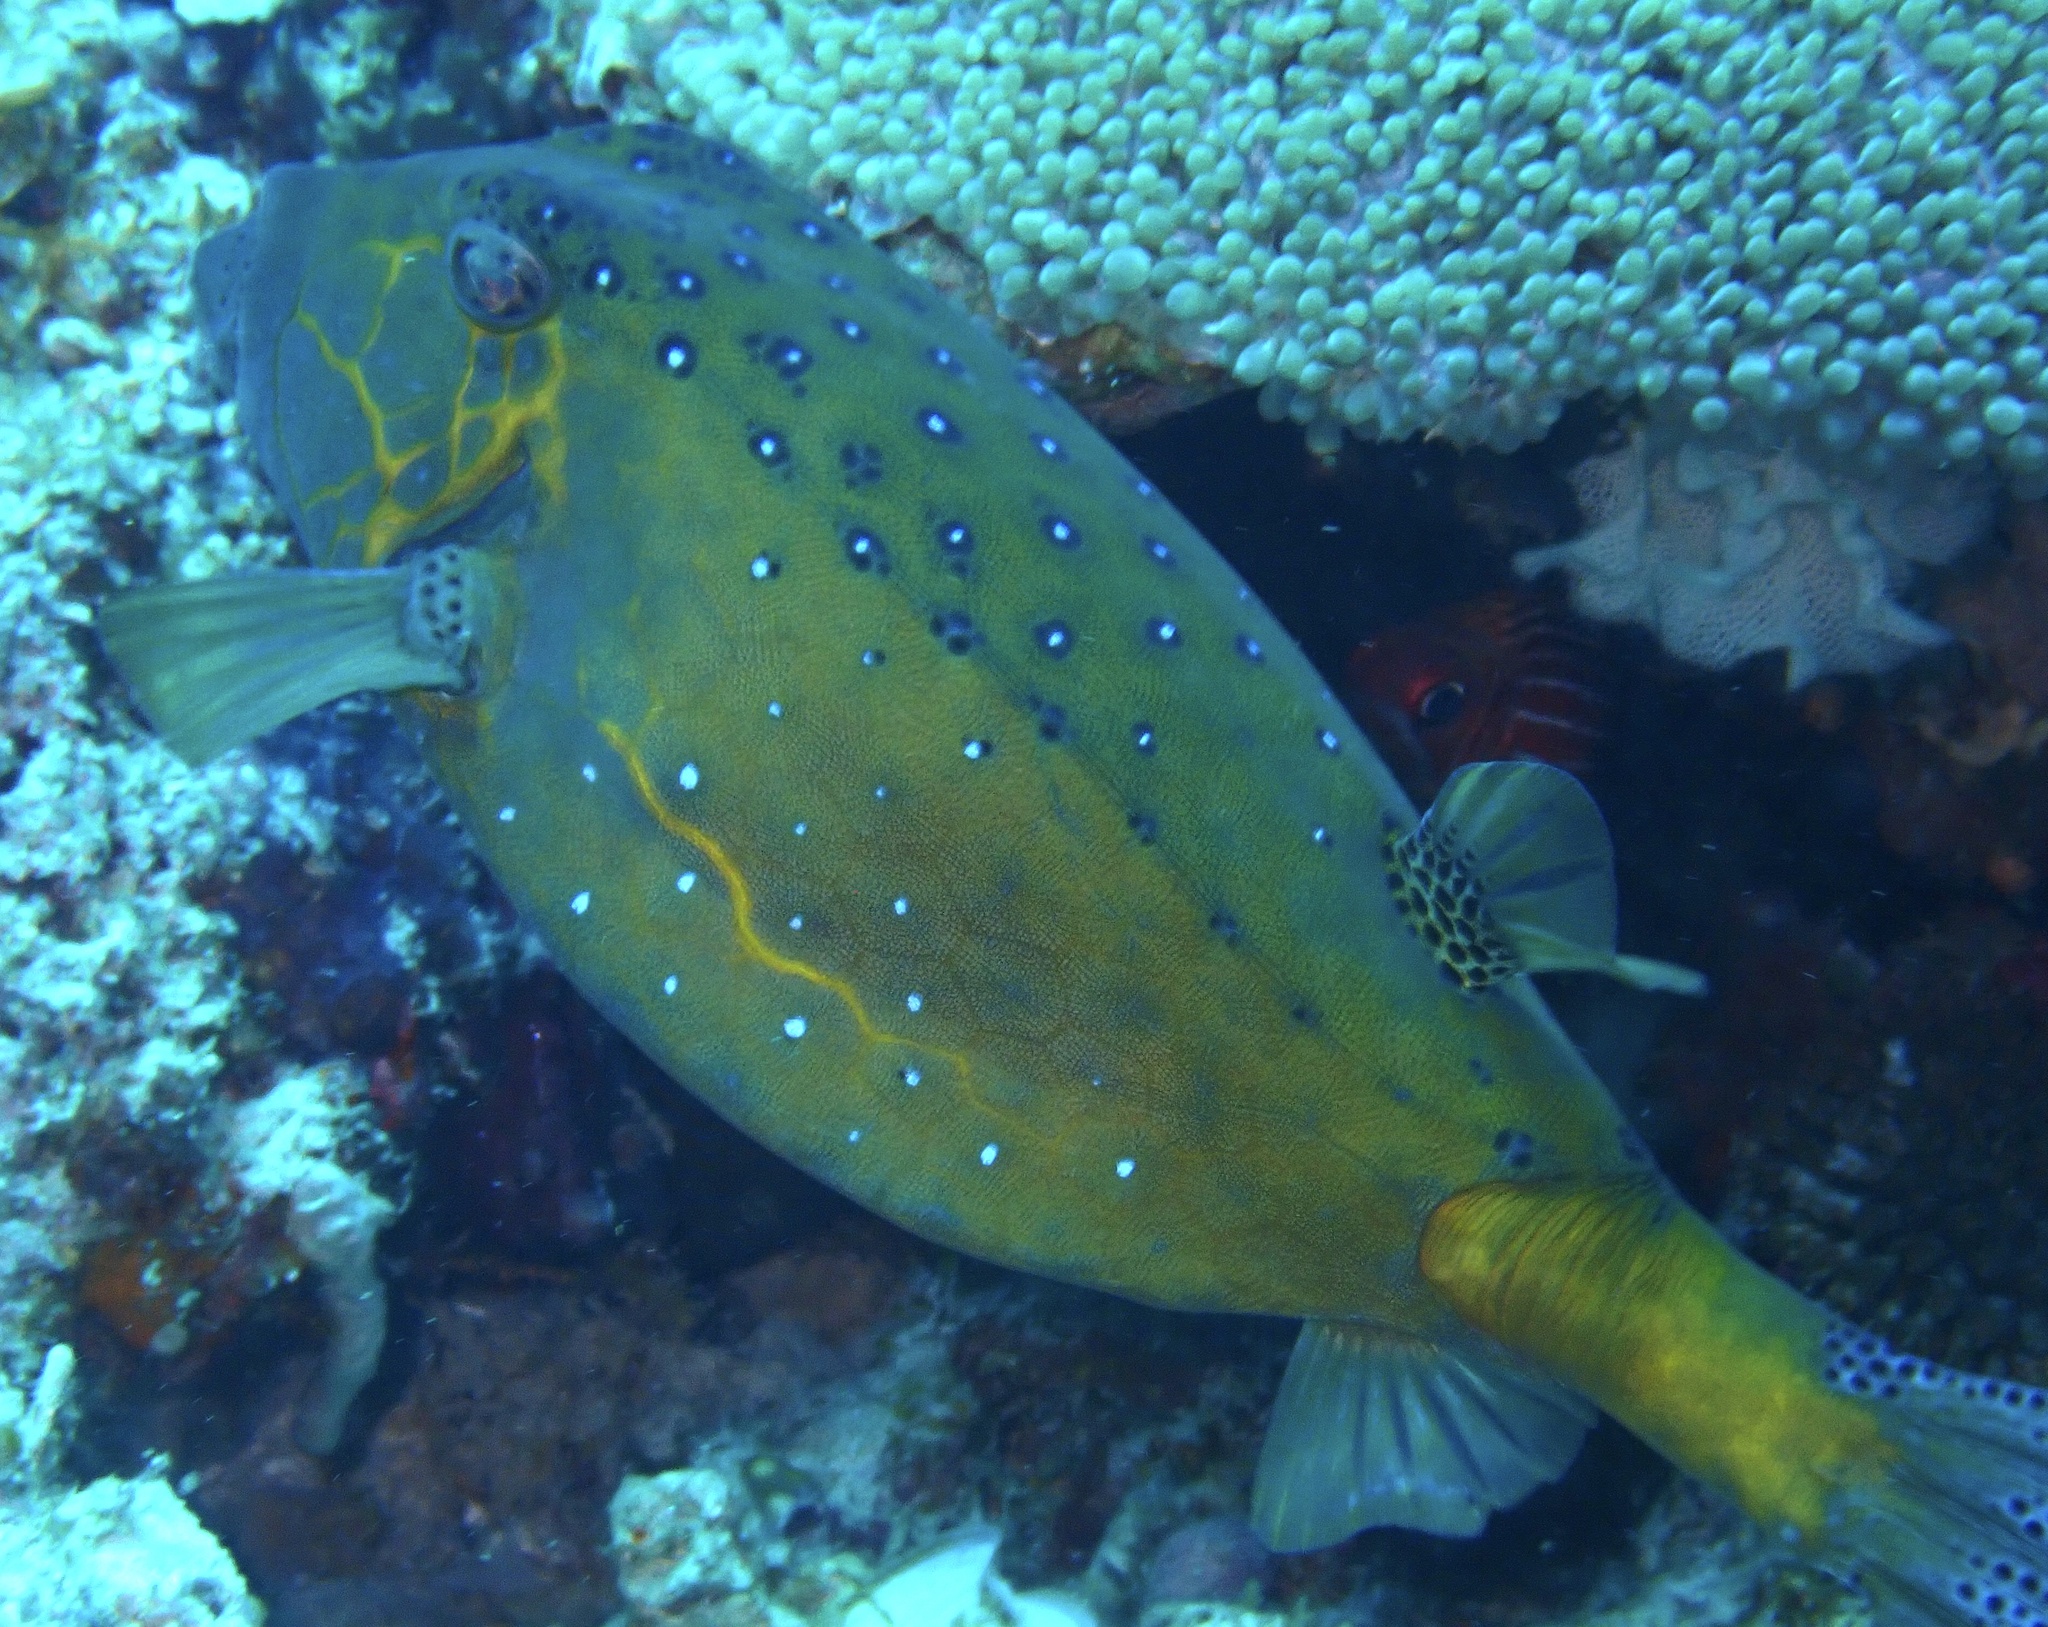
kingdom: Animalia
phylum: Chordata
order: Tetraodontiformes
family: Ostraciidae
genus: Ostracion
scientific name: Ostracion cubicus
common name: Cube trunkfish
